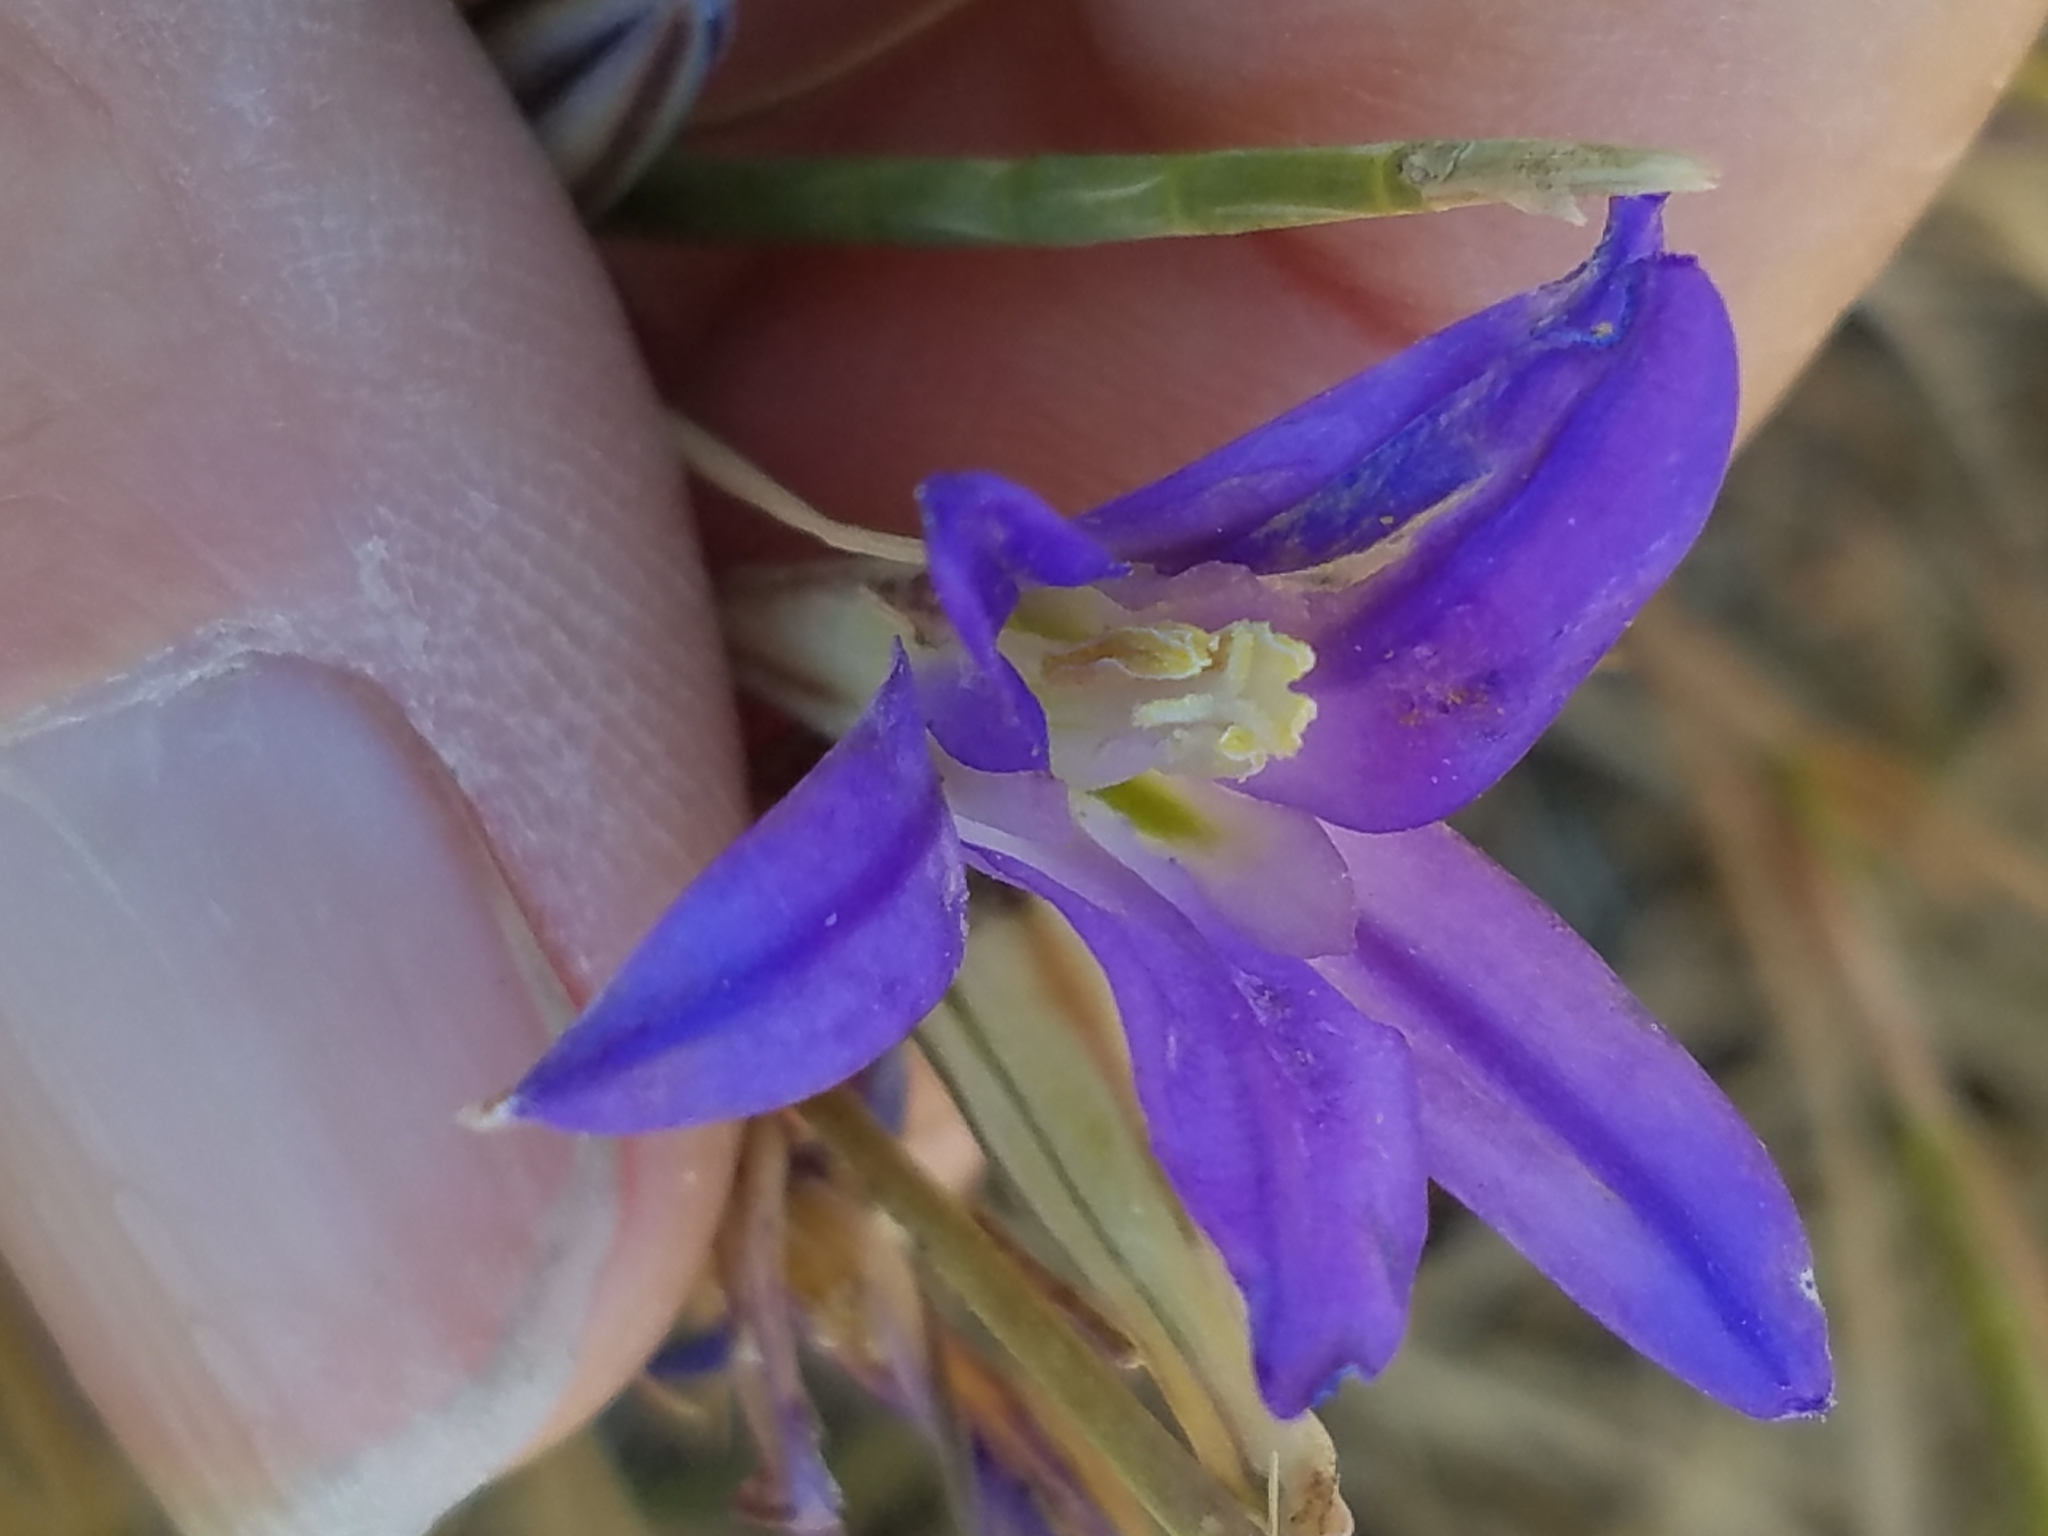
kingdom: Plantae
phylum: Tracheophyta
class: Liliopsida
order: Asparagales
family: Asparagaceae
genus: Brodiaea
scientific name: Brodiaea elegans
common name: Elegant cluster-lily
